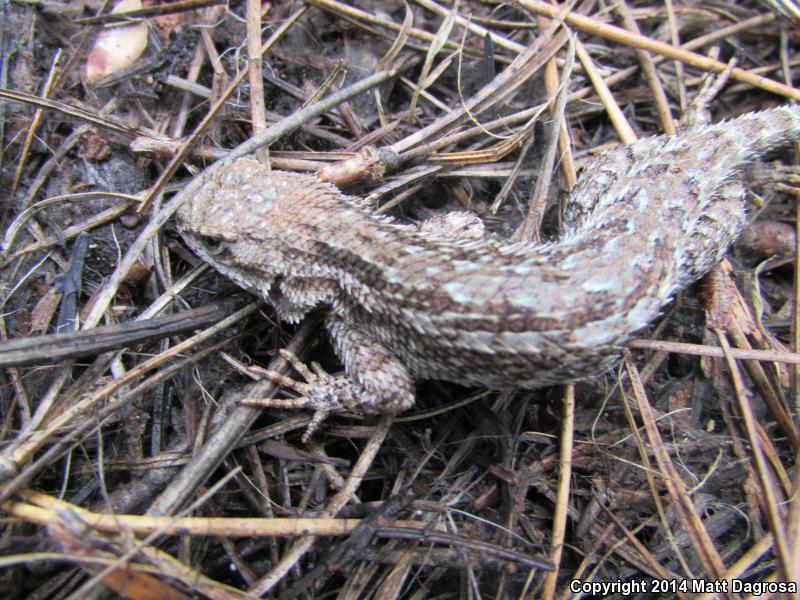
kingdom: Animalia
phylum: Chordata
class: Squamata
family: Phrynosomatidae
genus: Sceloporus
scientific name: Sceloporus occidentalis
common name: Western fence lizard
